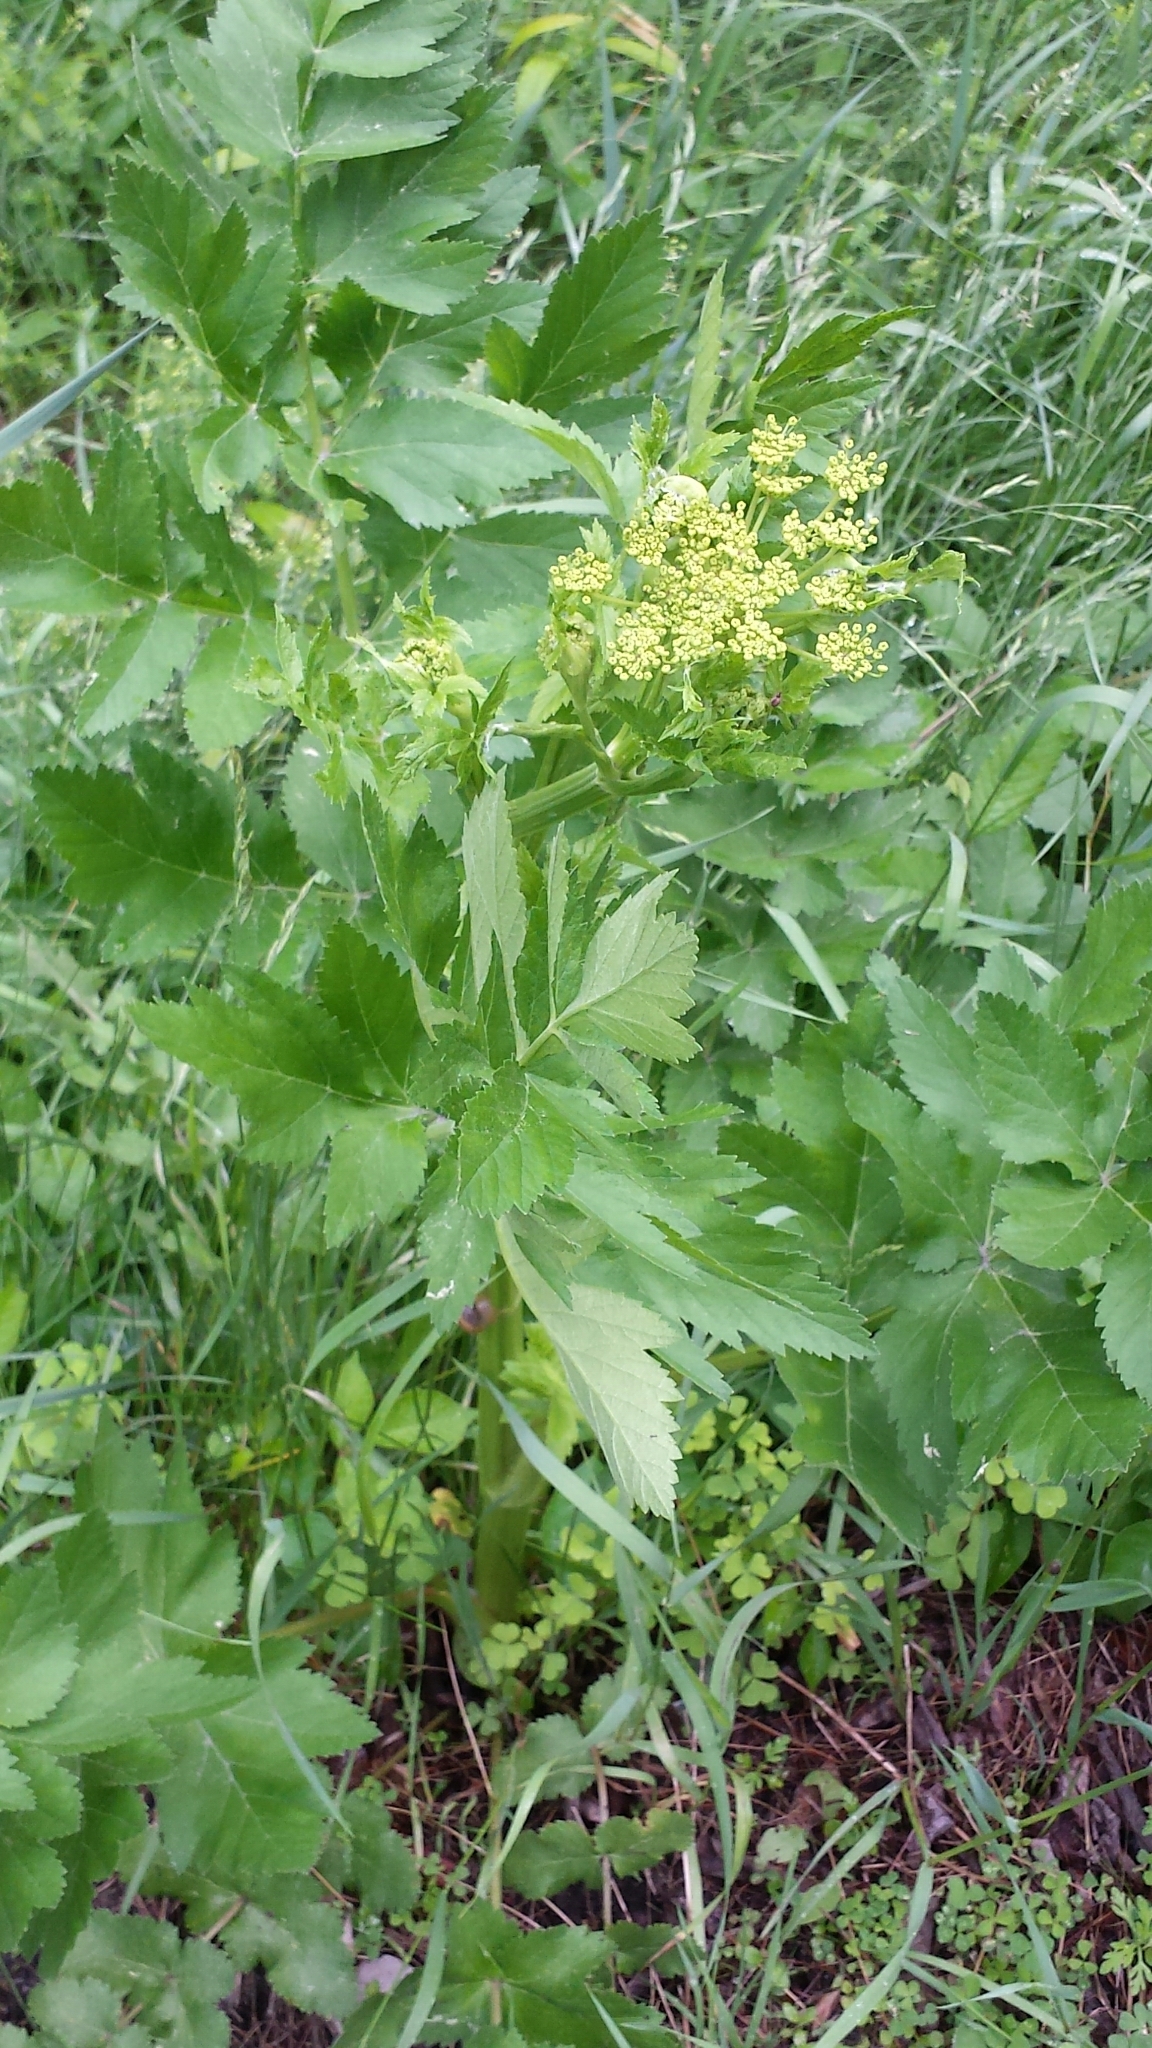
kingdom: Plantae
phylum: Tracheophyta
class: Magnoliopsida
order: Apiales
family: Apiaceae
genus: Pastinaca
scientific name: Pastinaca sativa
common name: Wild parsnip
